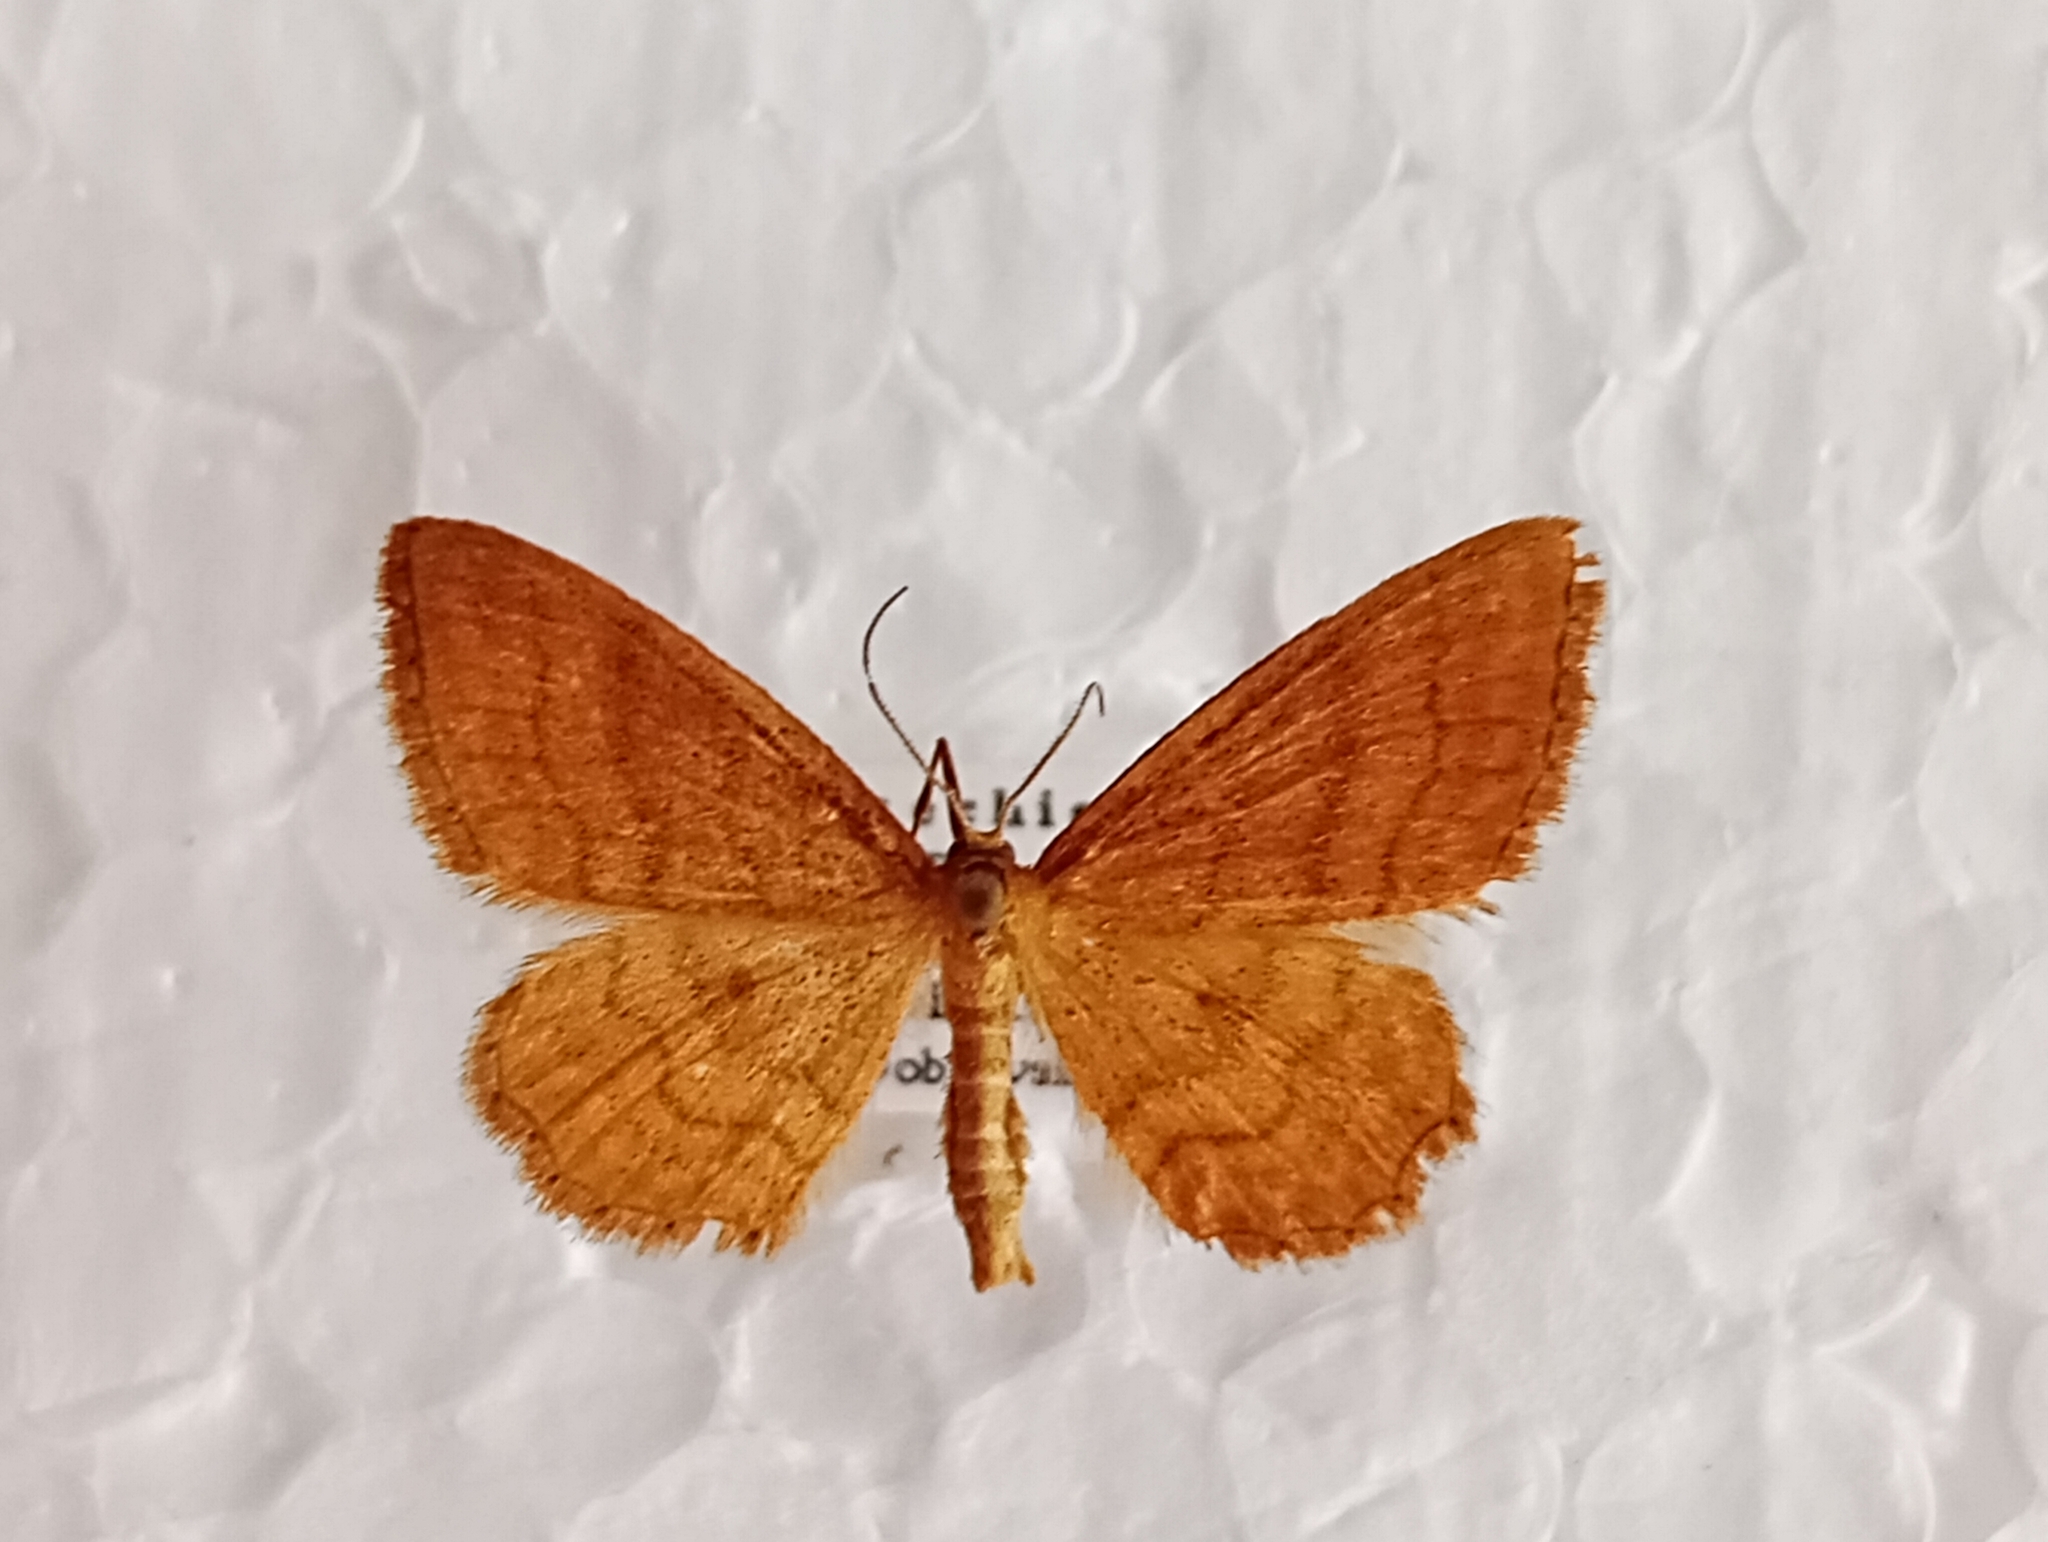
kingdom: Animalia
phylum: Arthropoda
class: Insecta
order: Lepidoptera
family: Geometridae
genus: Idaea
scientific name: Idaea ochrata
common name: Bright wave
